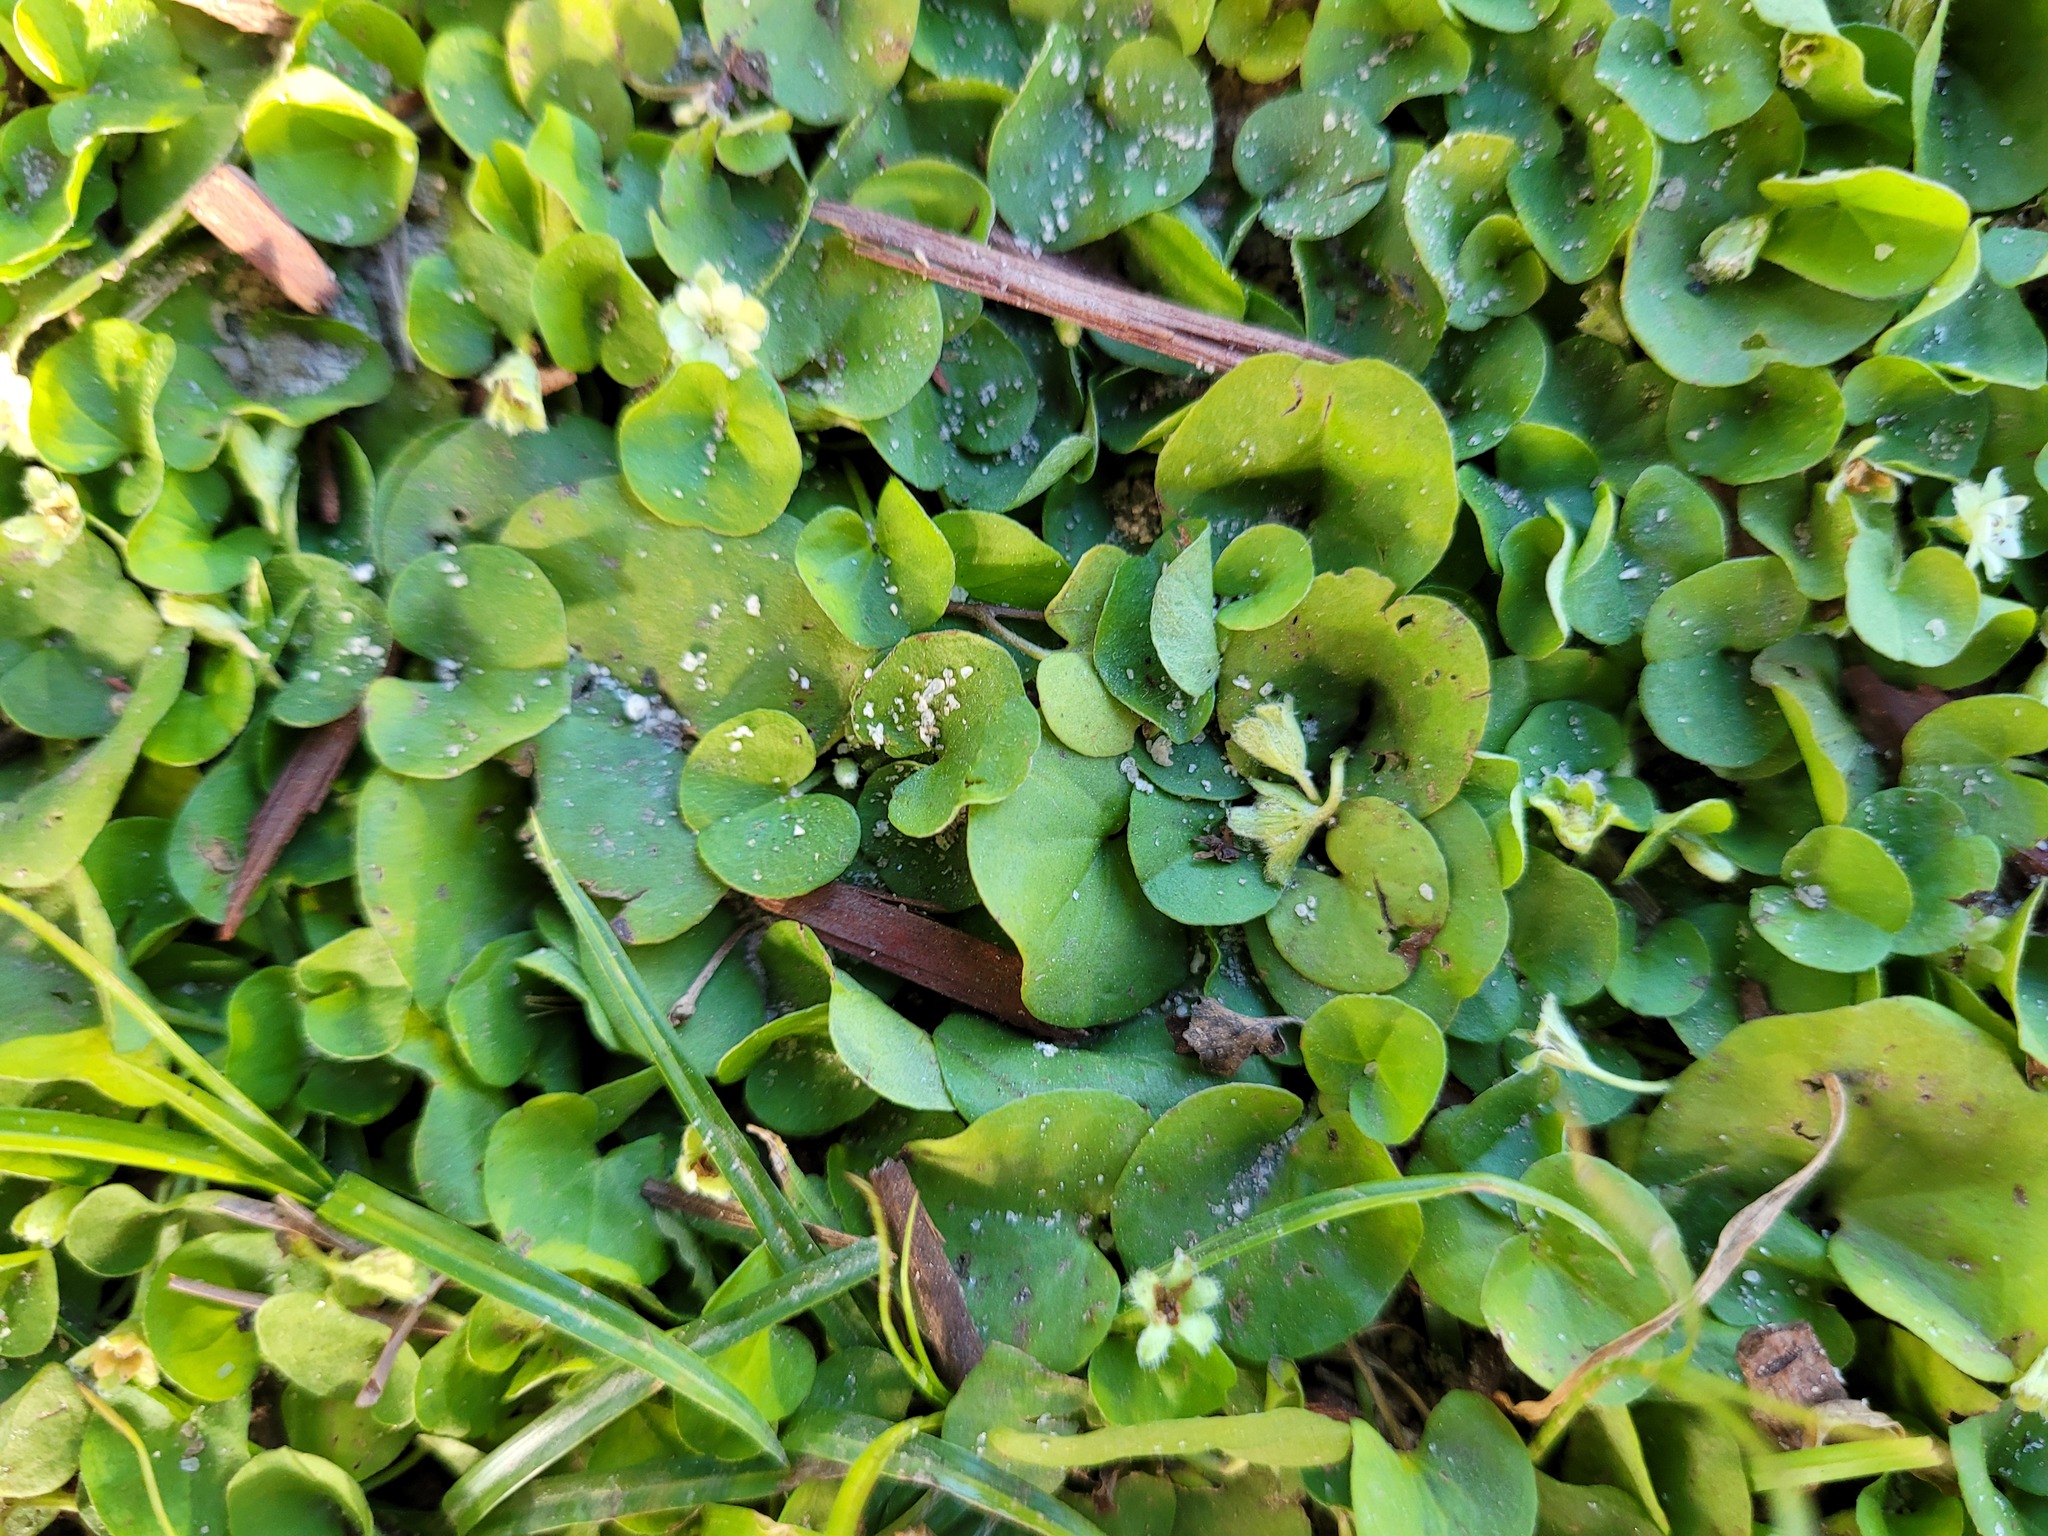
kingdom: Plantae
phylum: Tracheophyta
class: Magnoliopsida
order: Solanales
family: Convolvulaceae
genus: Dichondra
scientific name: Dichondra carolinensis
